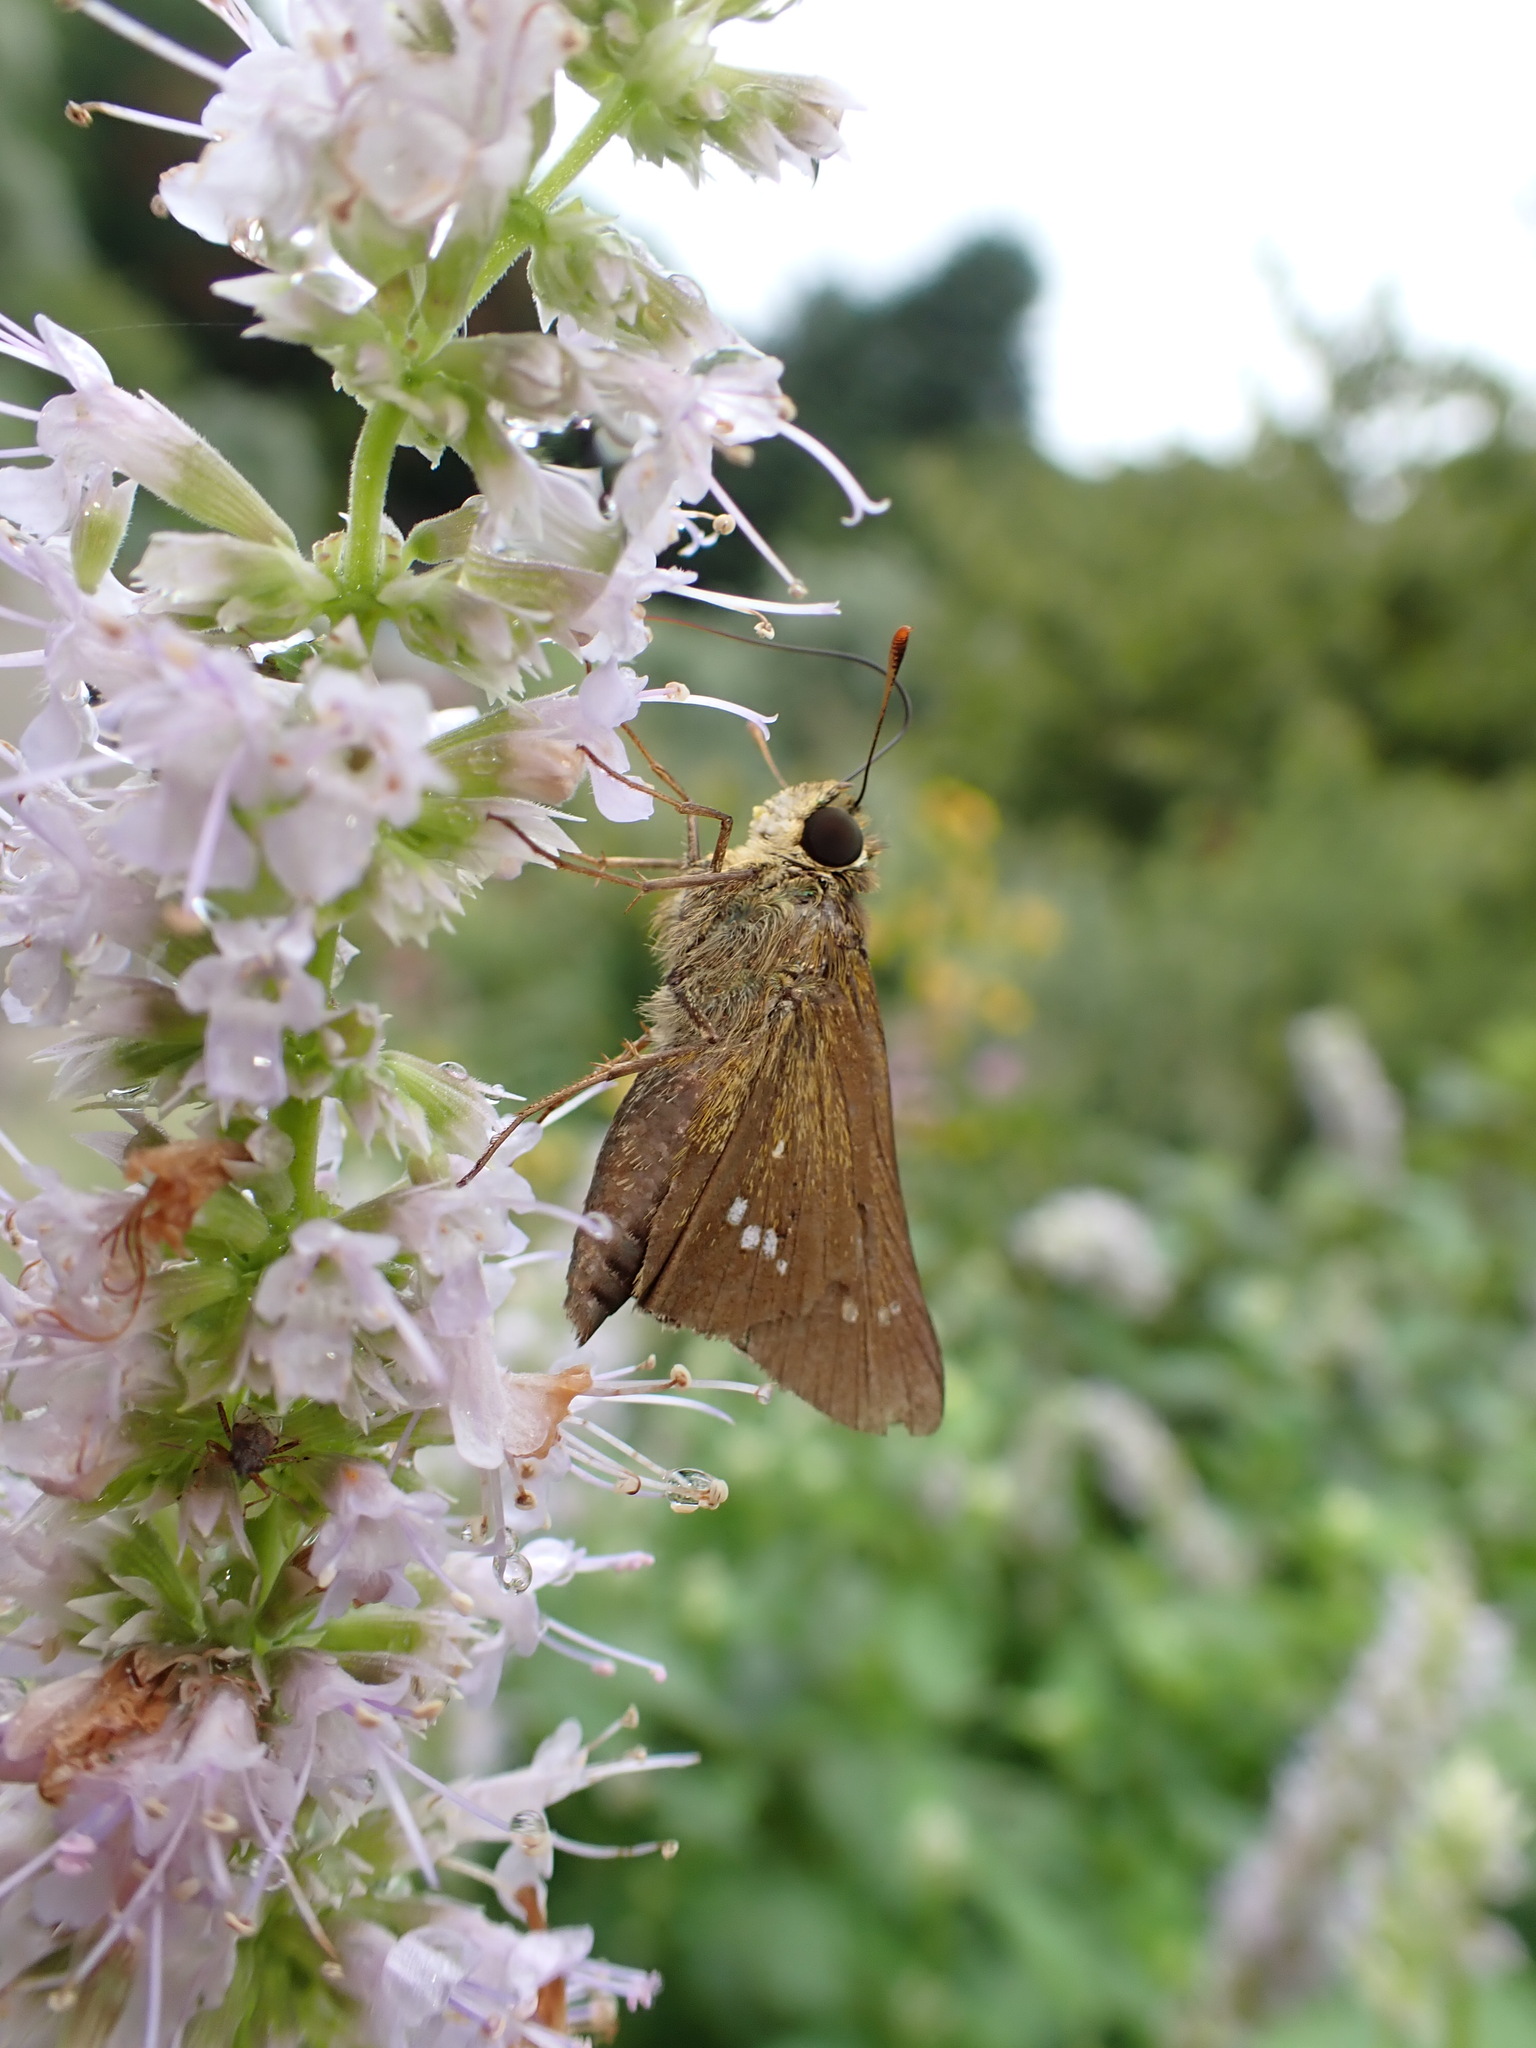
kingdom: Animalia
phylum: Arthropoda
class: Insecta
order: Lepidoptera
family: Hesperiidae
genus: Parnara
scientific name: Parnara guttatus
